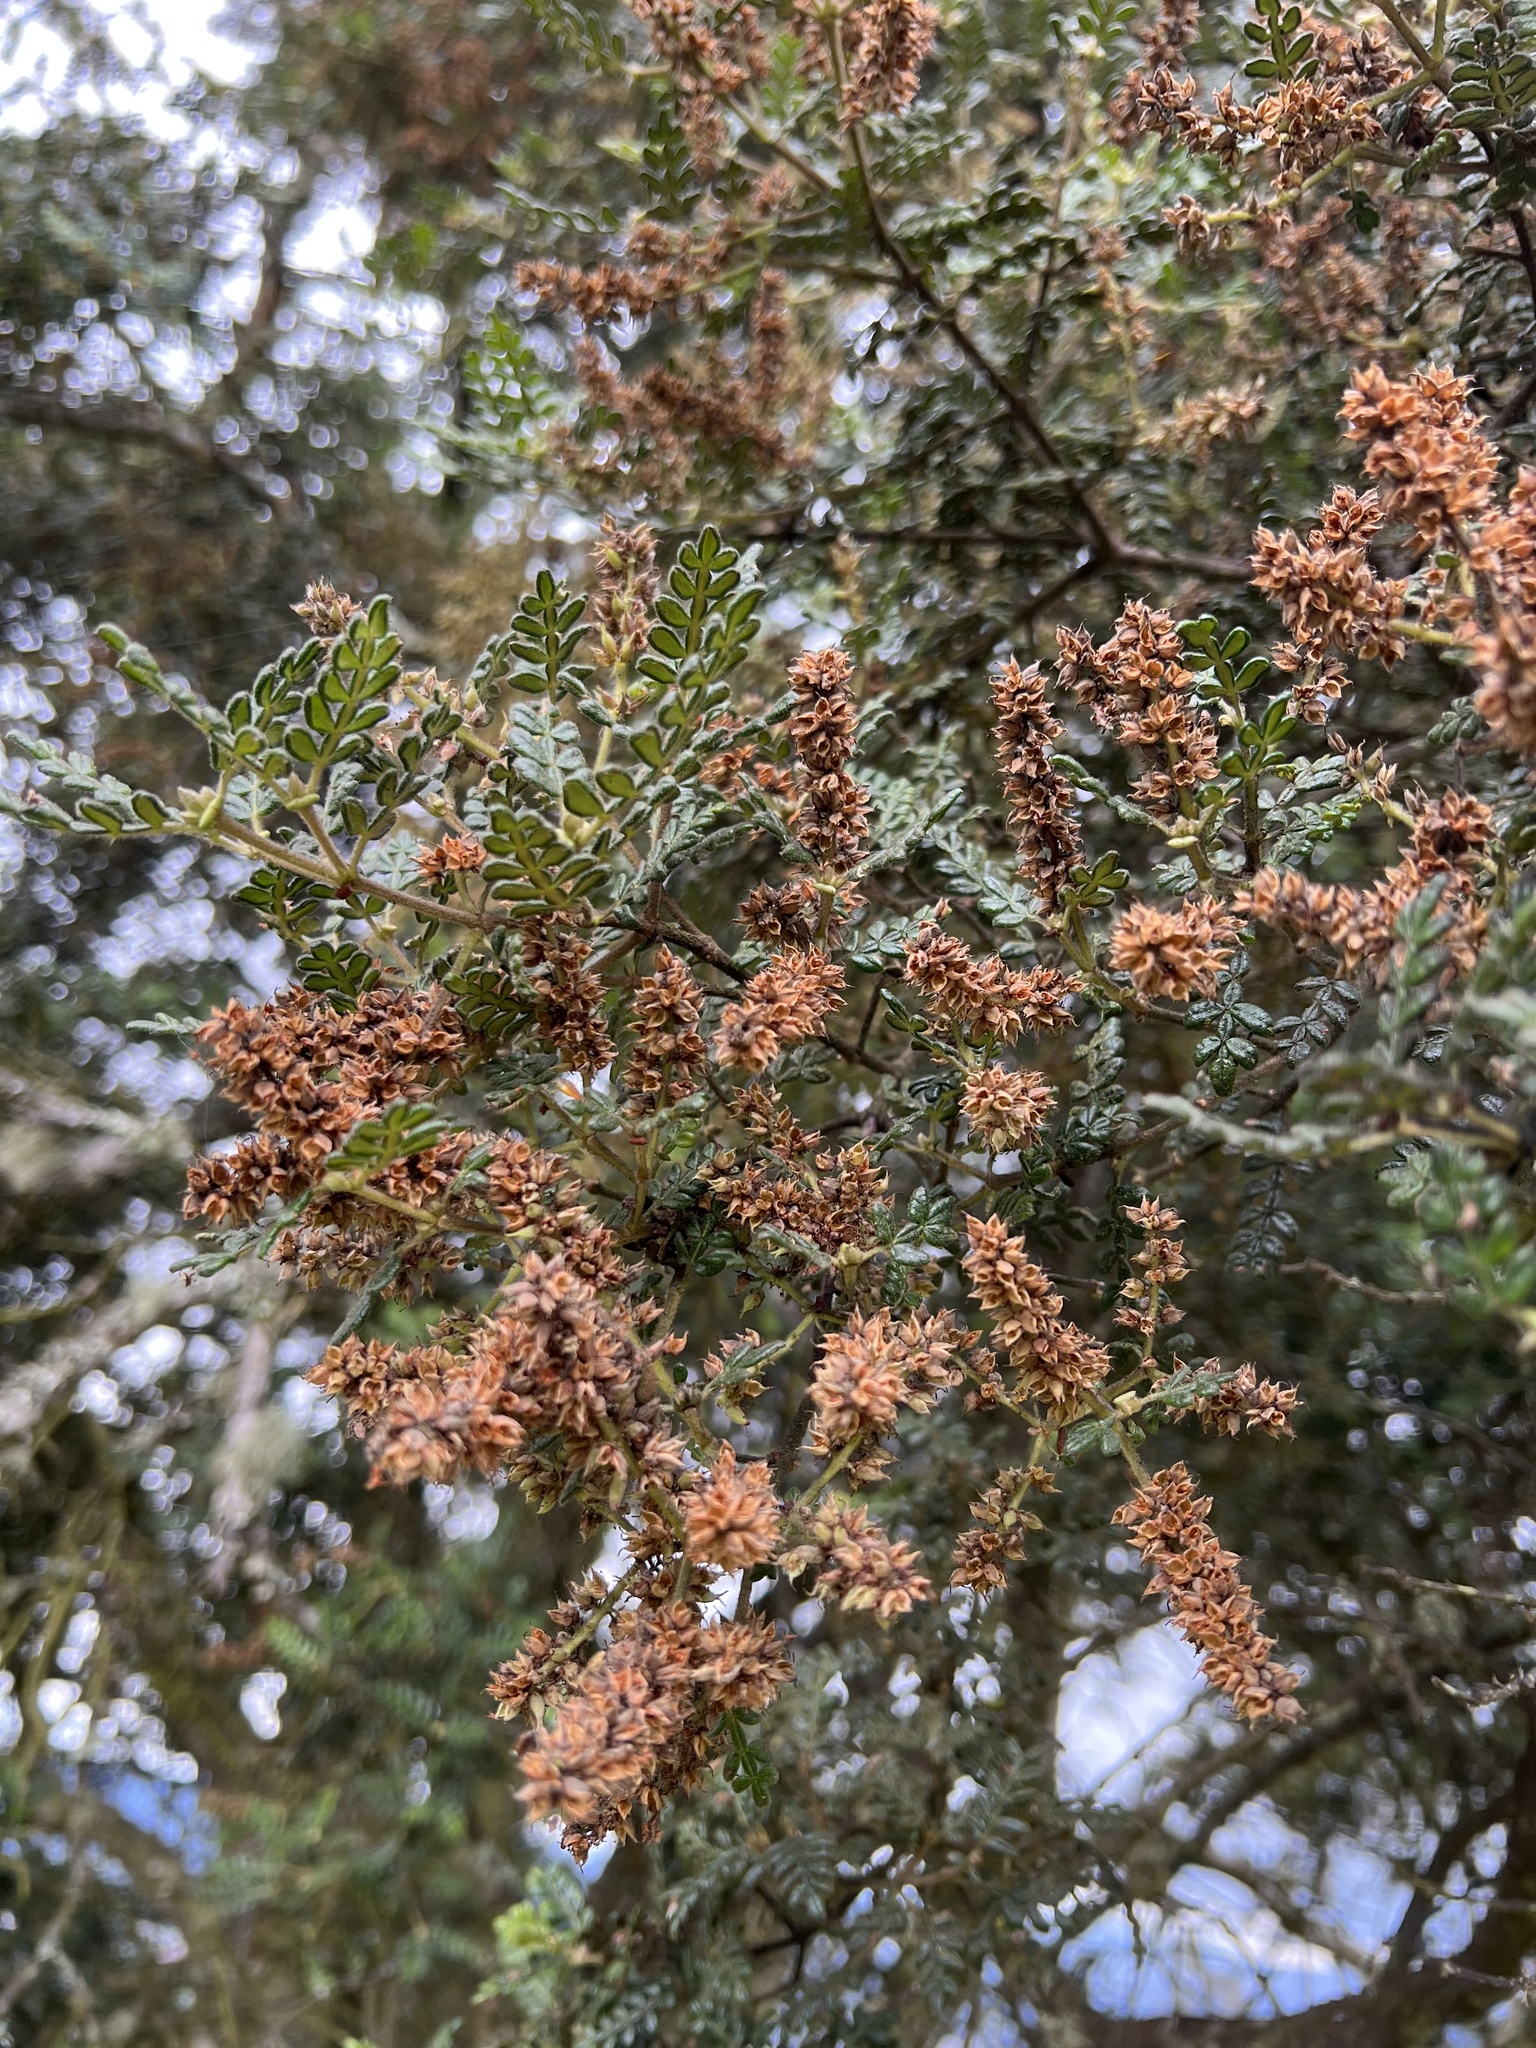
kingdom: Plantae
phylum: Tracheophyta
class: Magnoliopsida
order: Oxalidales
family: Cunoniaceae
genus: Weinmannia
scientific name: Weinmannia tomentosa
